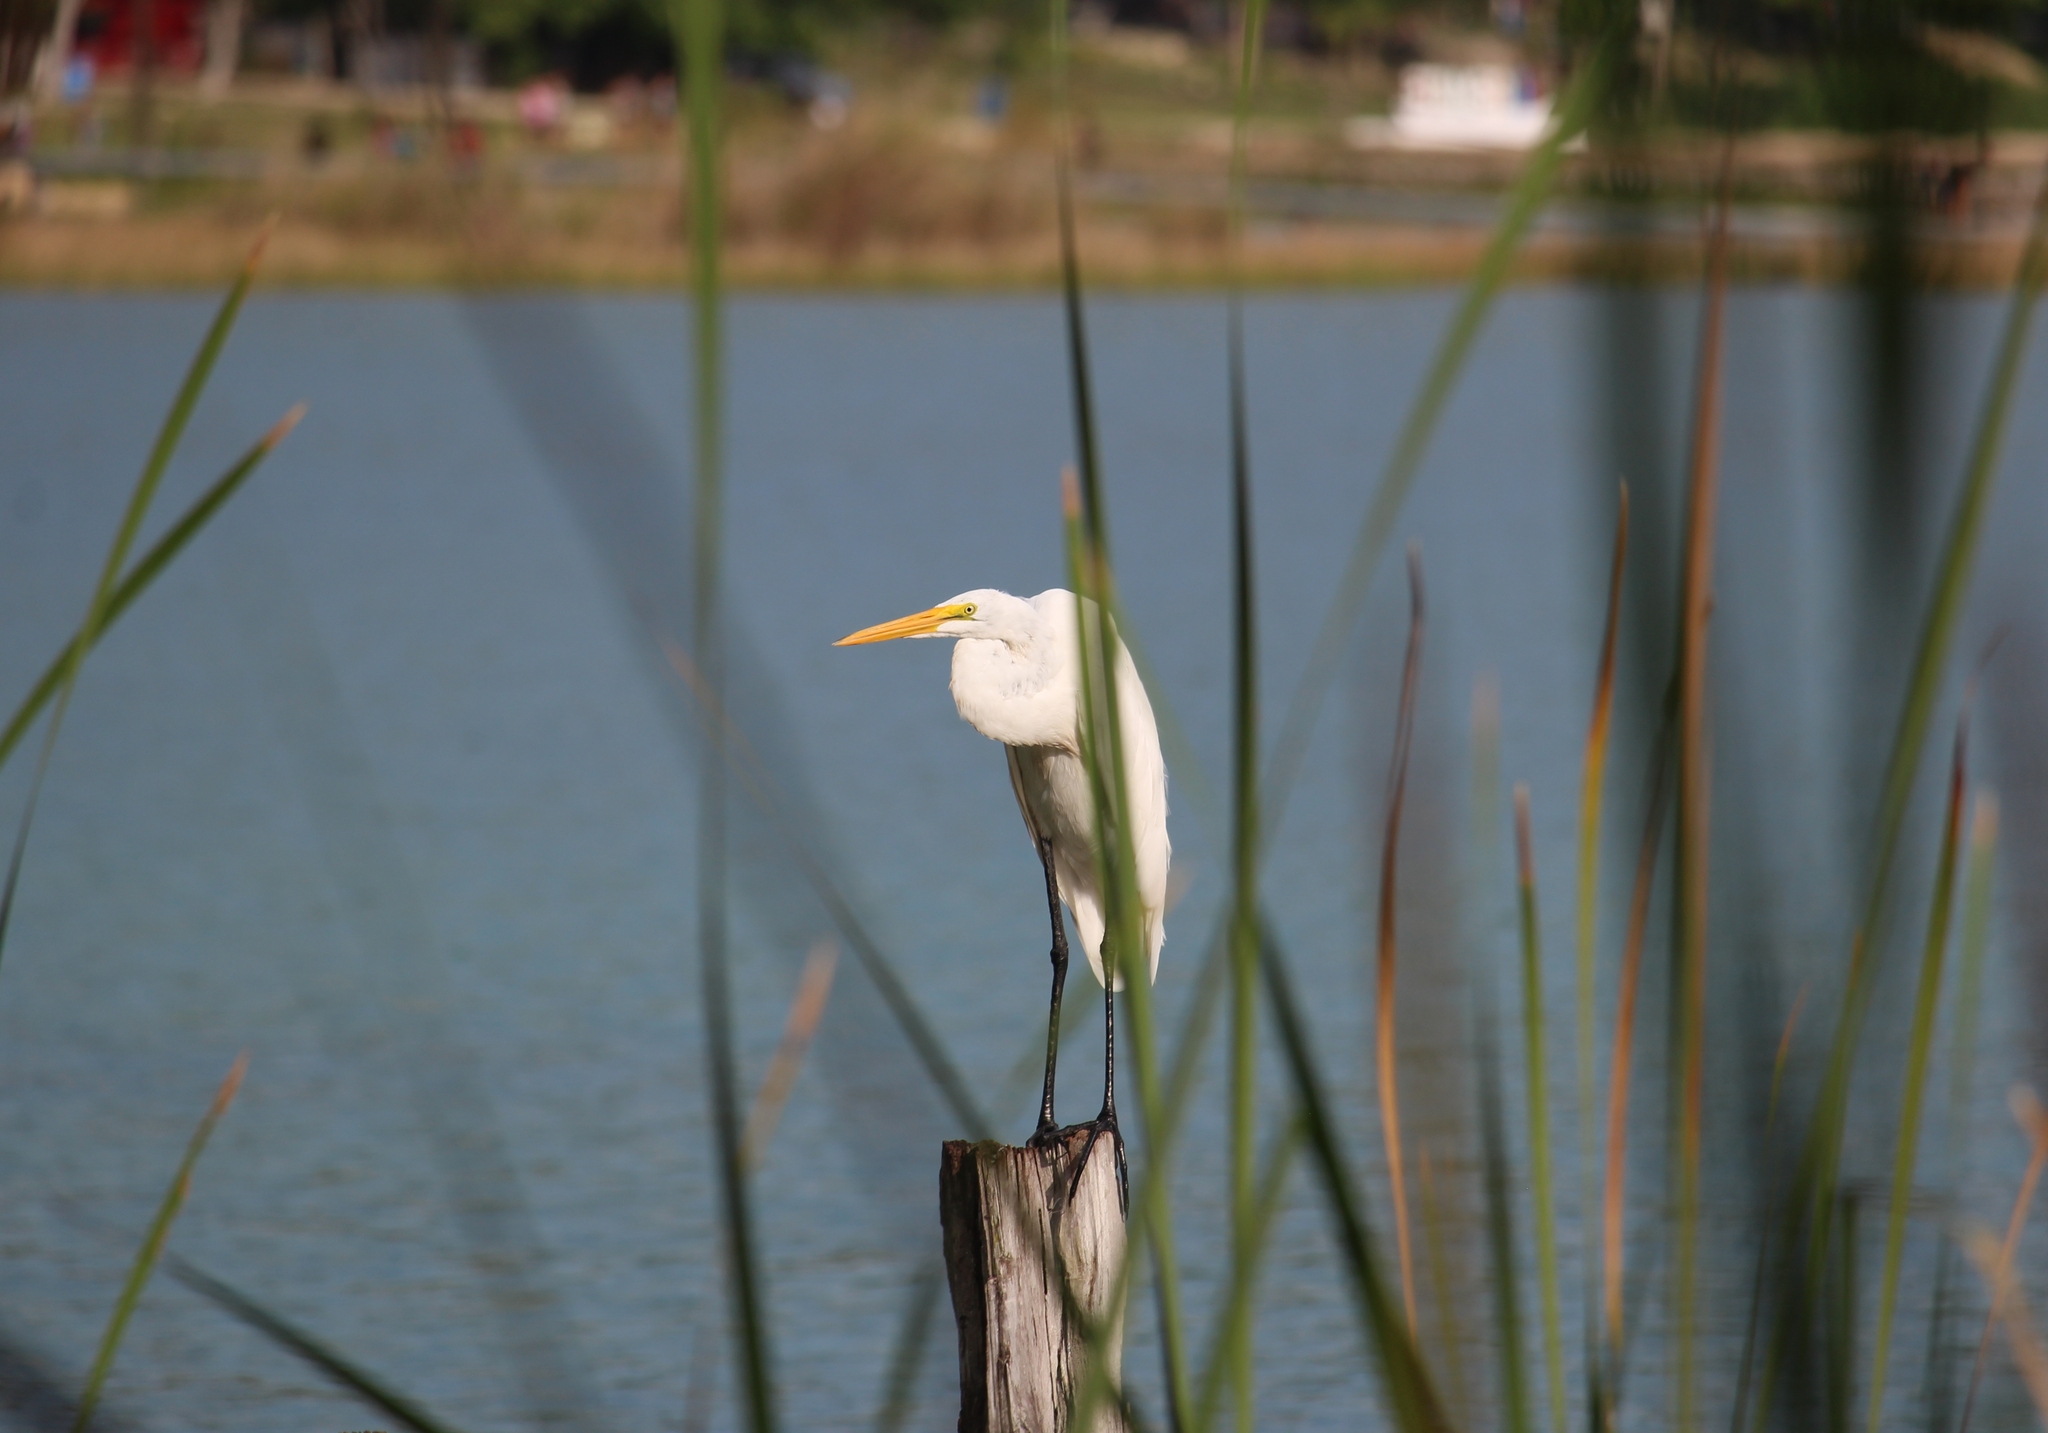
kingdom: Animalia
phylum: Chordata
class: Aves
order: Pelecaniformes
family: Ardeidae
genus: Ardea
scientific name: Ardea alba
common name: Great egret
